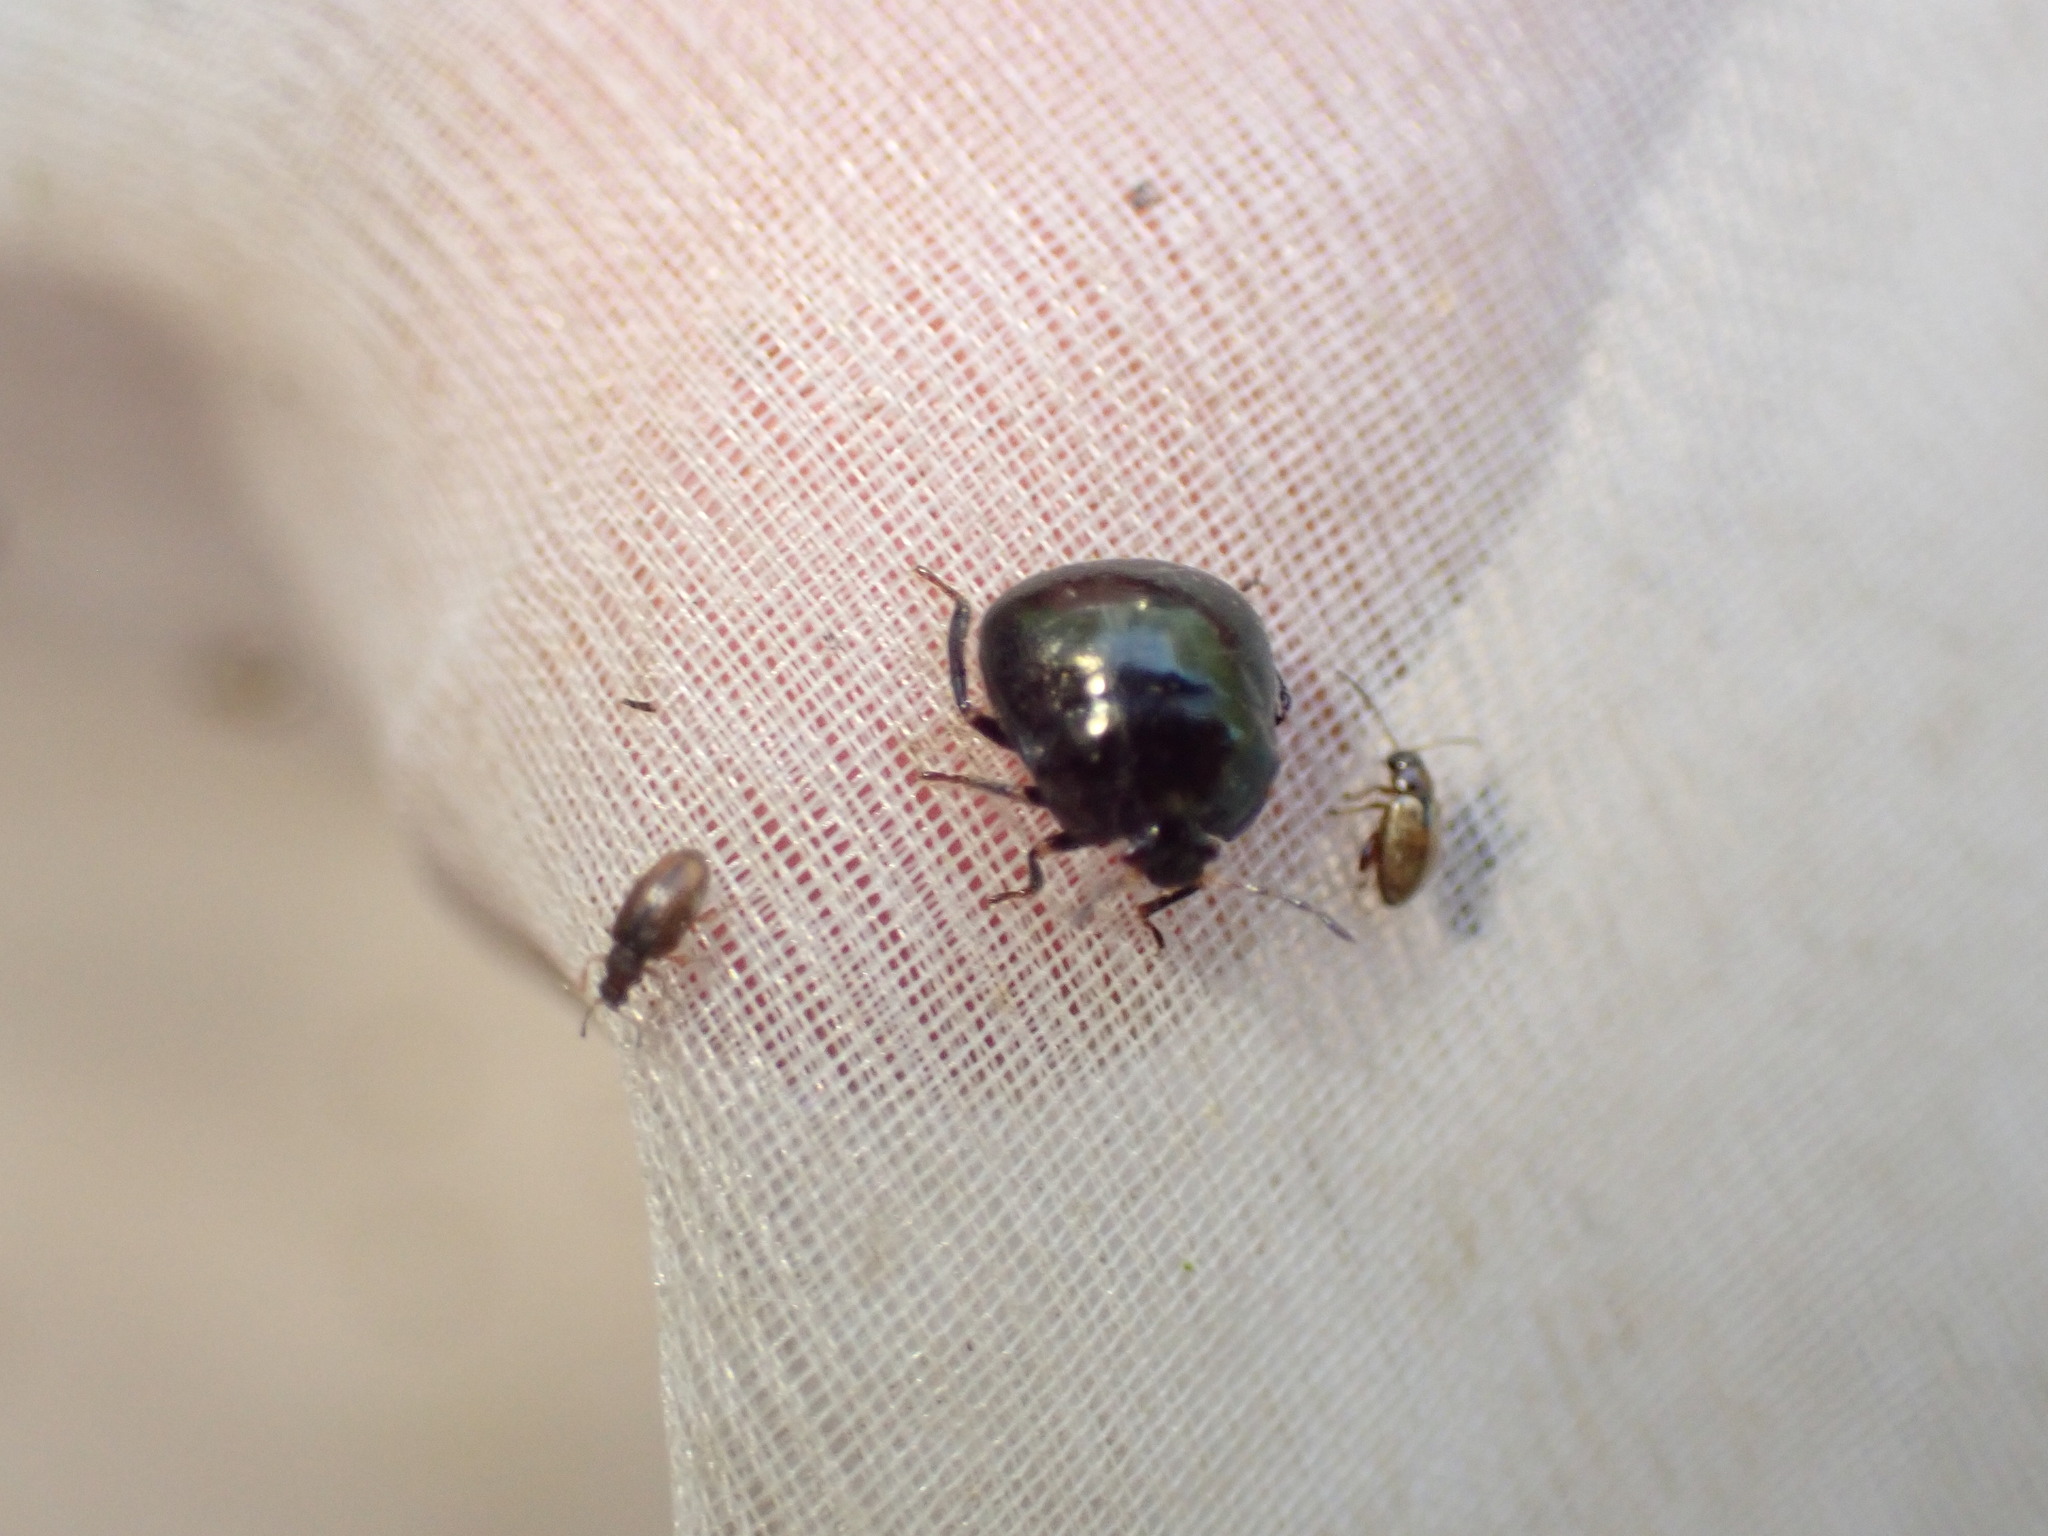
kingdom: Animalia
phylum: Arthropoda
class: Insecta
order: Hemiptera
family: Plataspidae
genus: Coptosoma
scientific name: Coptosoma scutellatum
